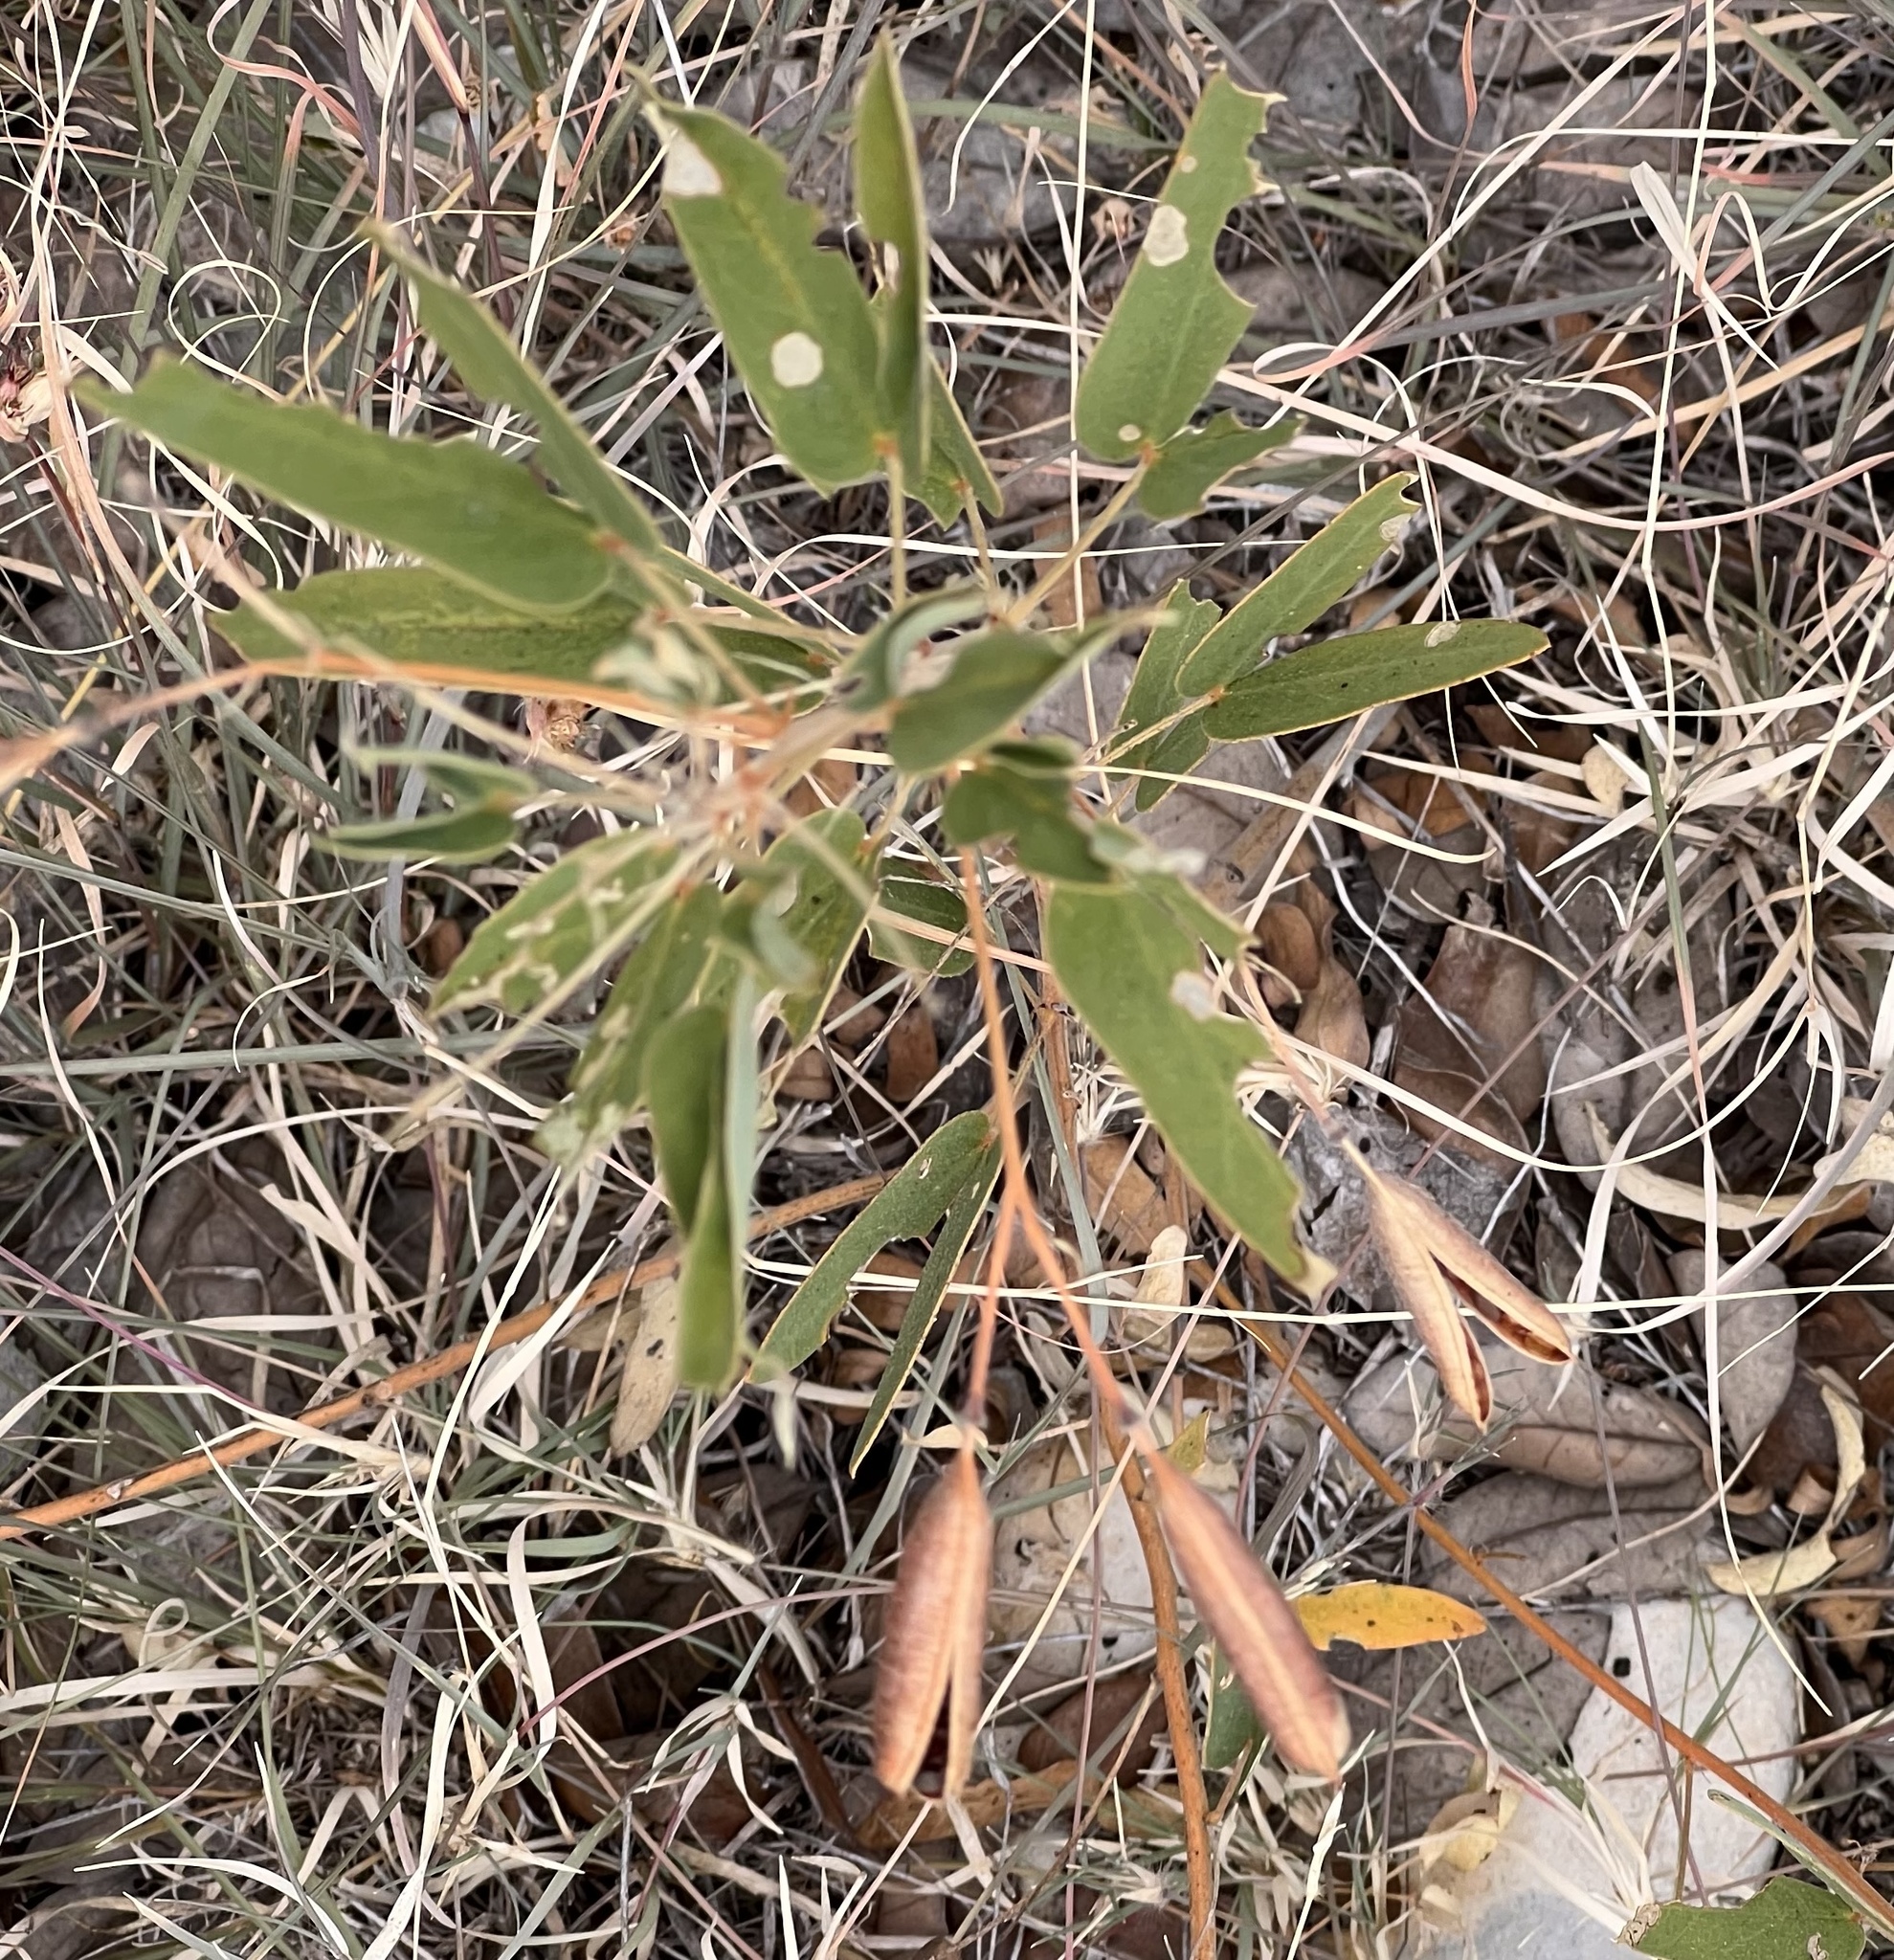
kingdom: Plantae
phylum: Tracheophyta
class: Magnoliopsida
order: Fabales
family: Fabaceae
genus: Senna
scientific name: Senna roemeriana
